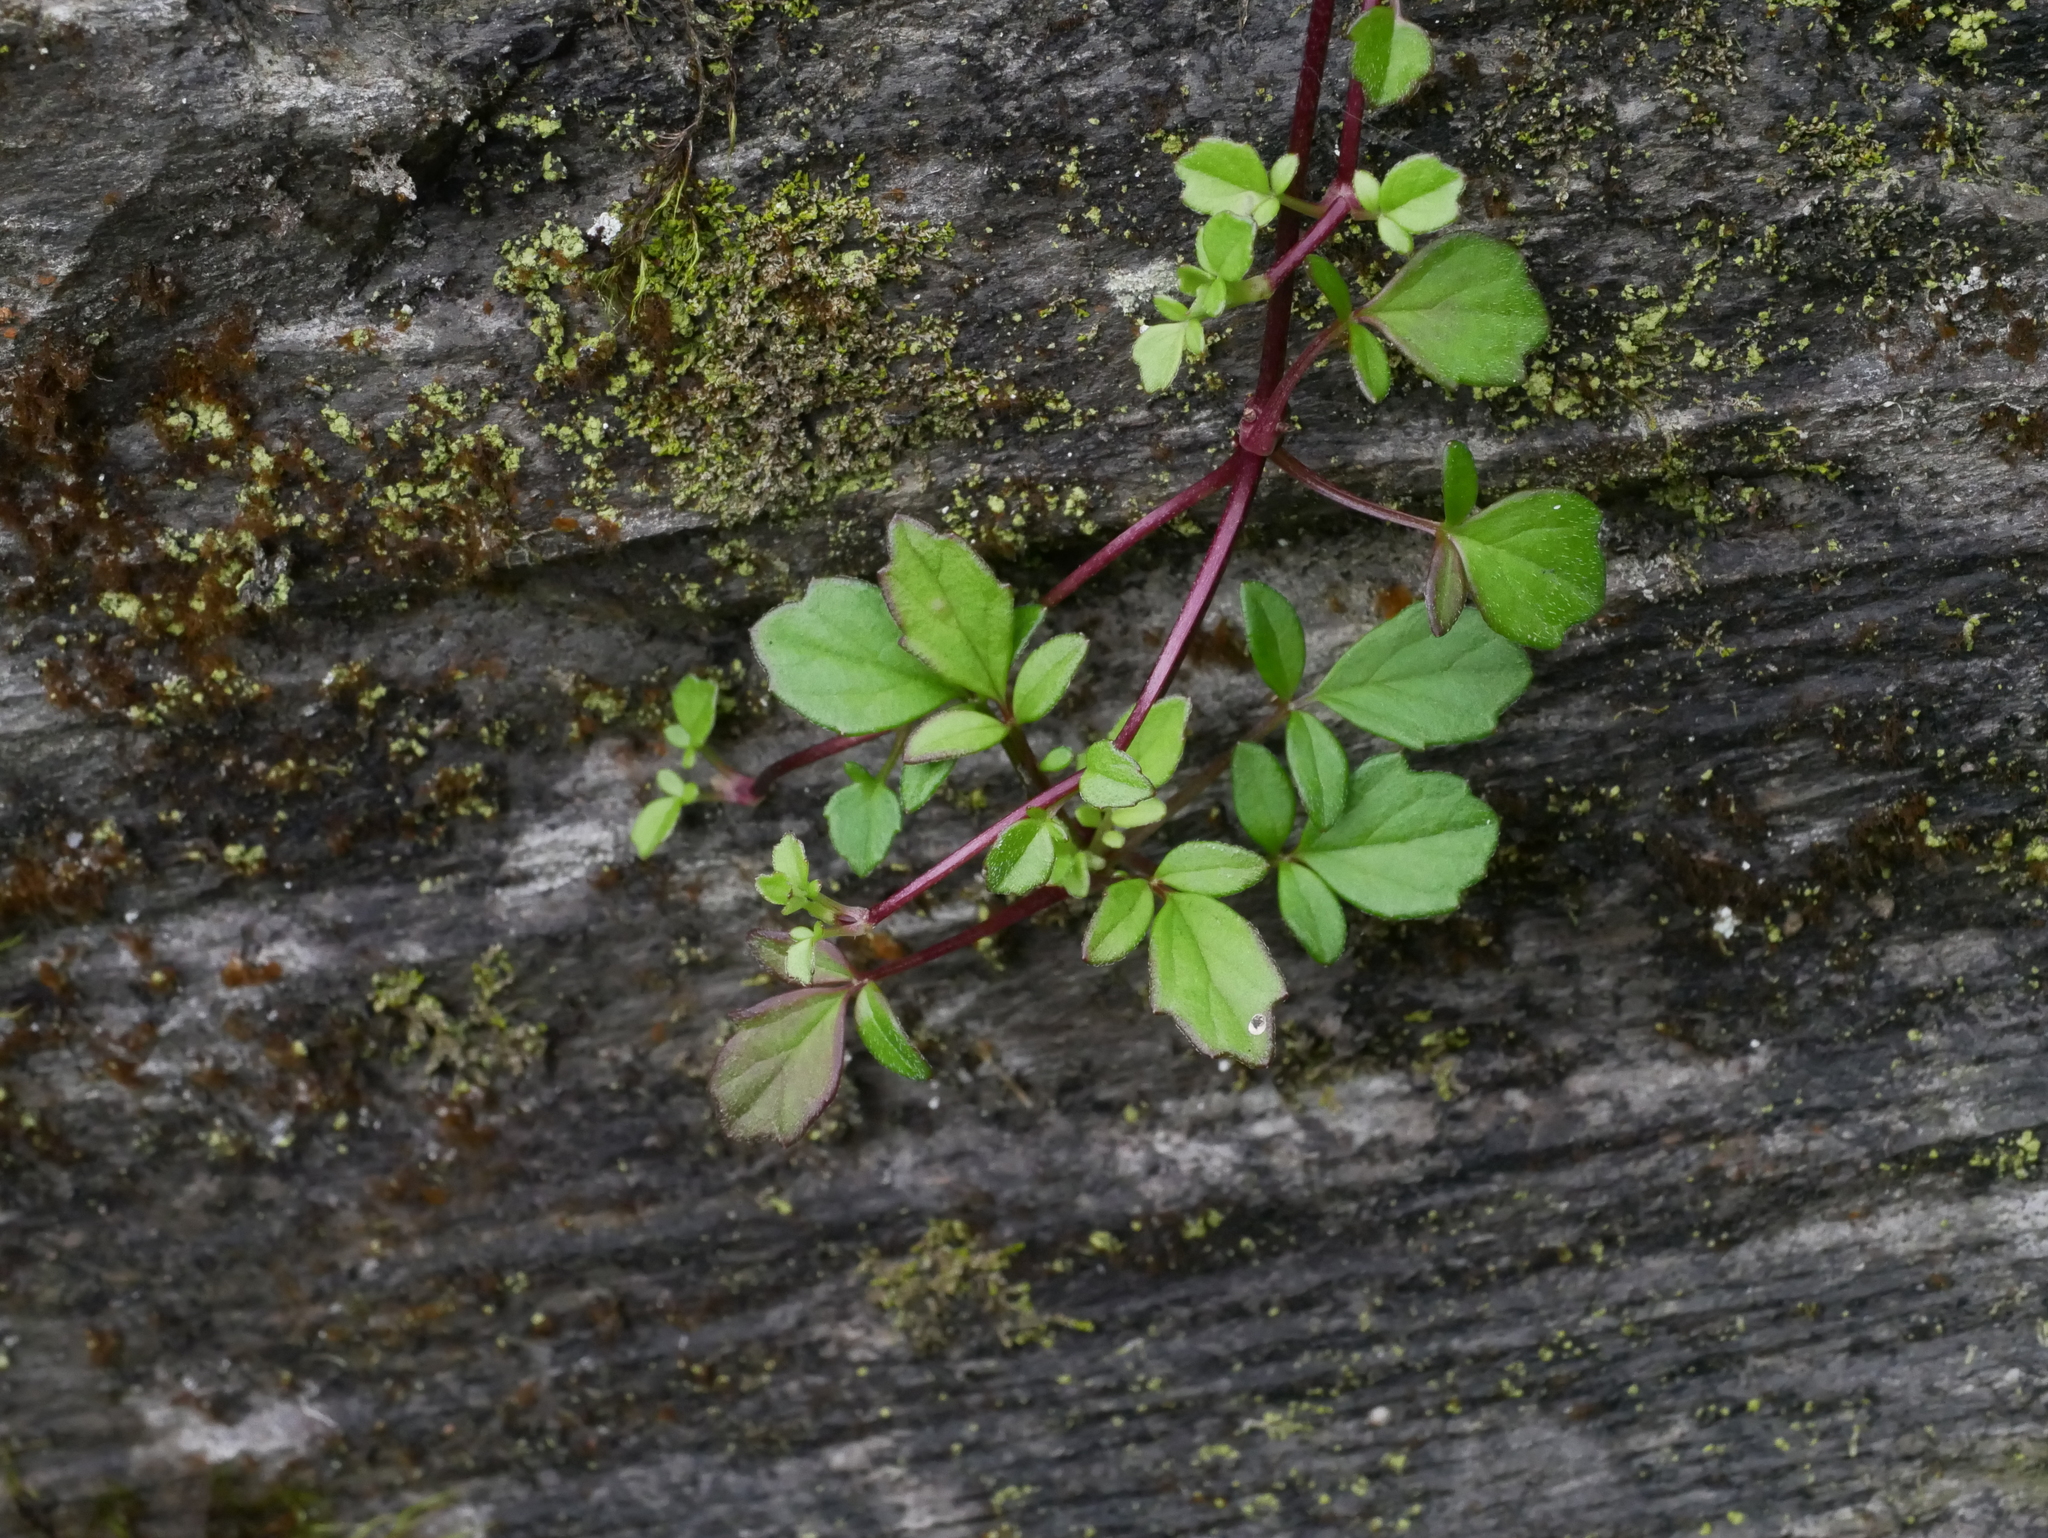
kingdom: Plantae
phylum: Tracheophyta
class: Magnoliopsida
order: Dipsacales
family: Caprifoliaceae
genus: Valeriana
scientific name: Valeriana kawakamii
